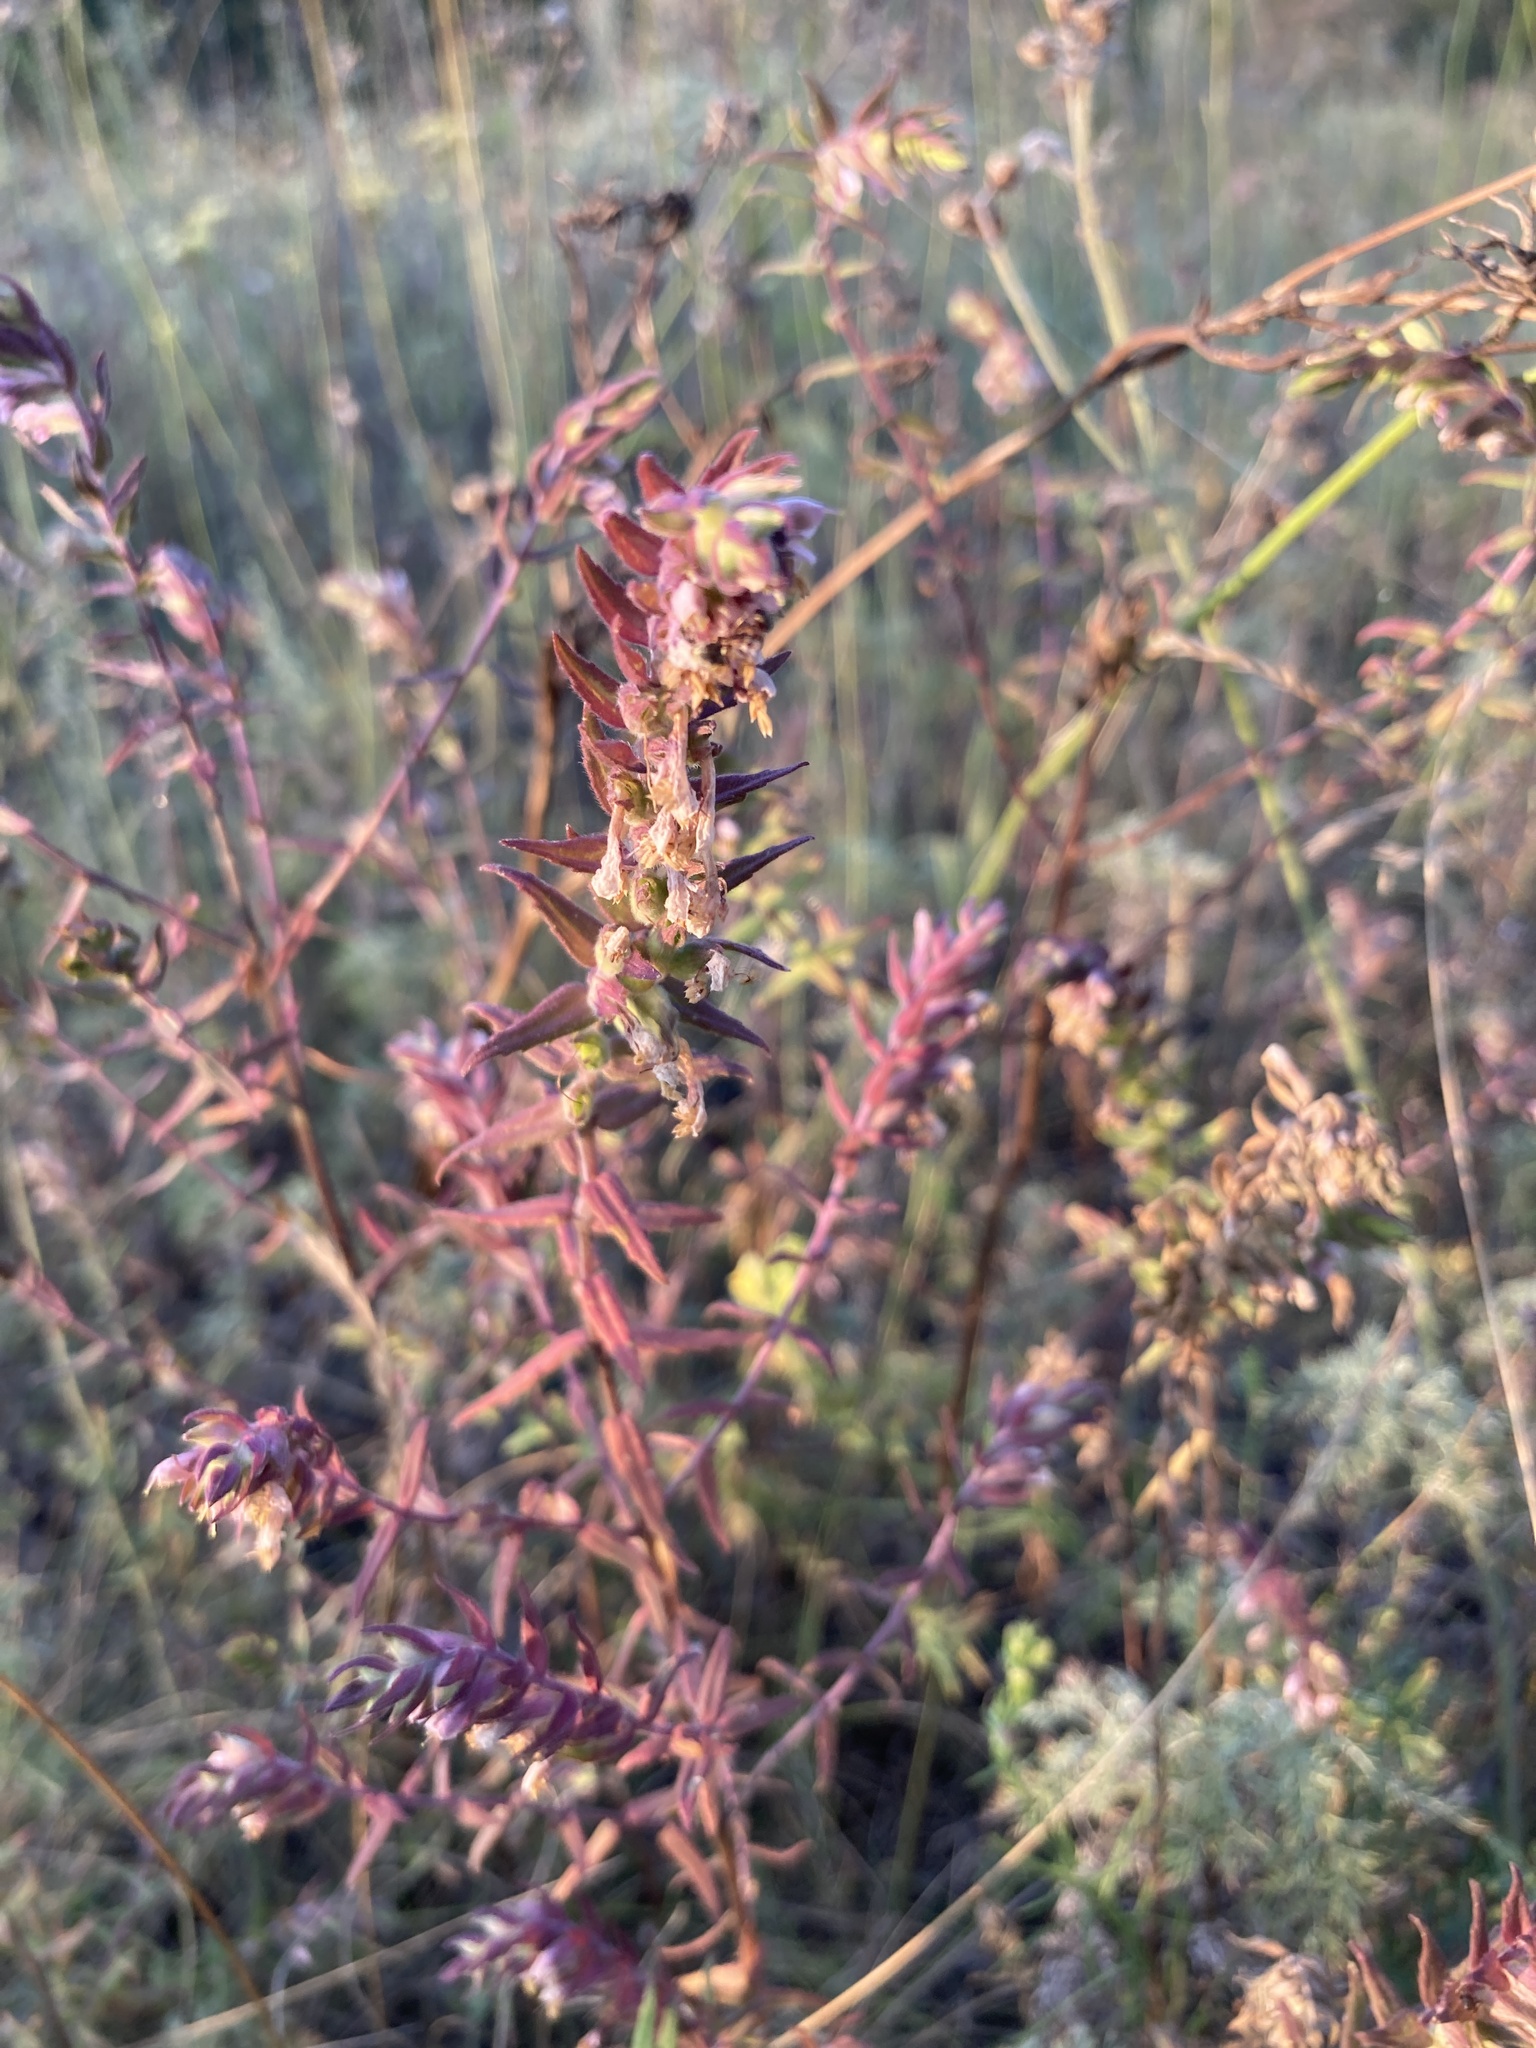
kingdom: Plantae
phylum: Tracheophyta
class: Magnoliopsida
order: Lamiales
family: Orobanchaceae
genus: Odontites
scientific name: Odontites vulgaris
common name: Broomrape
